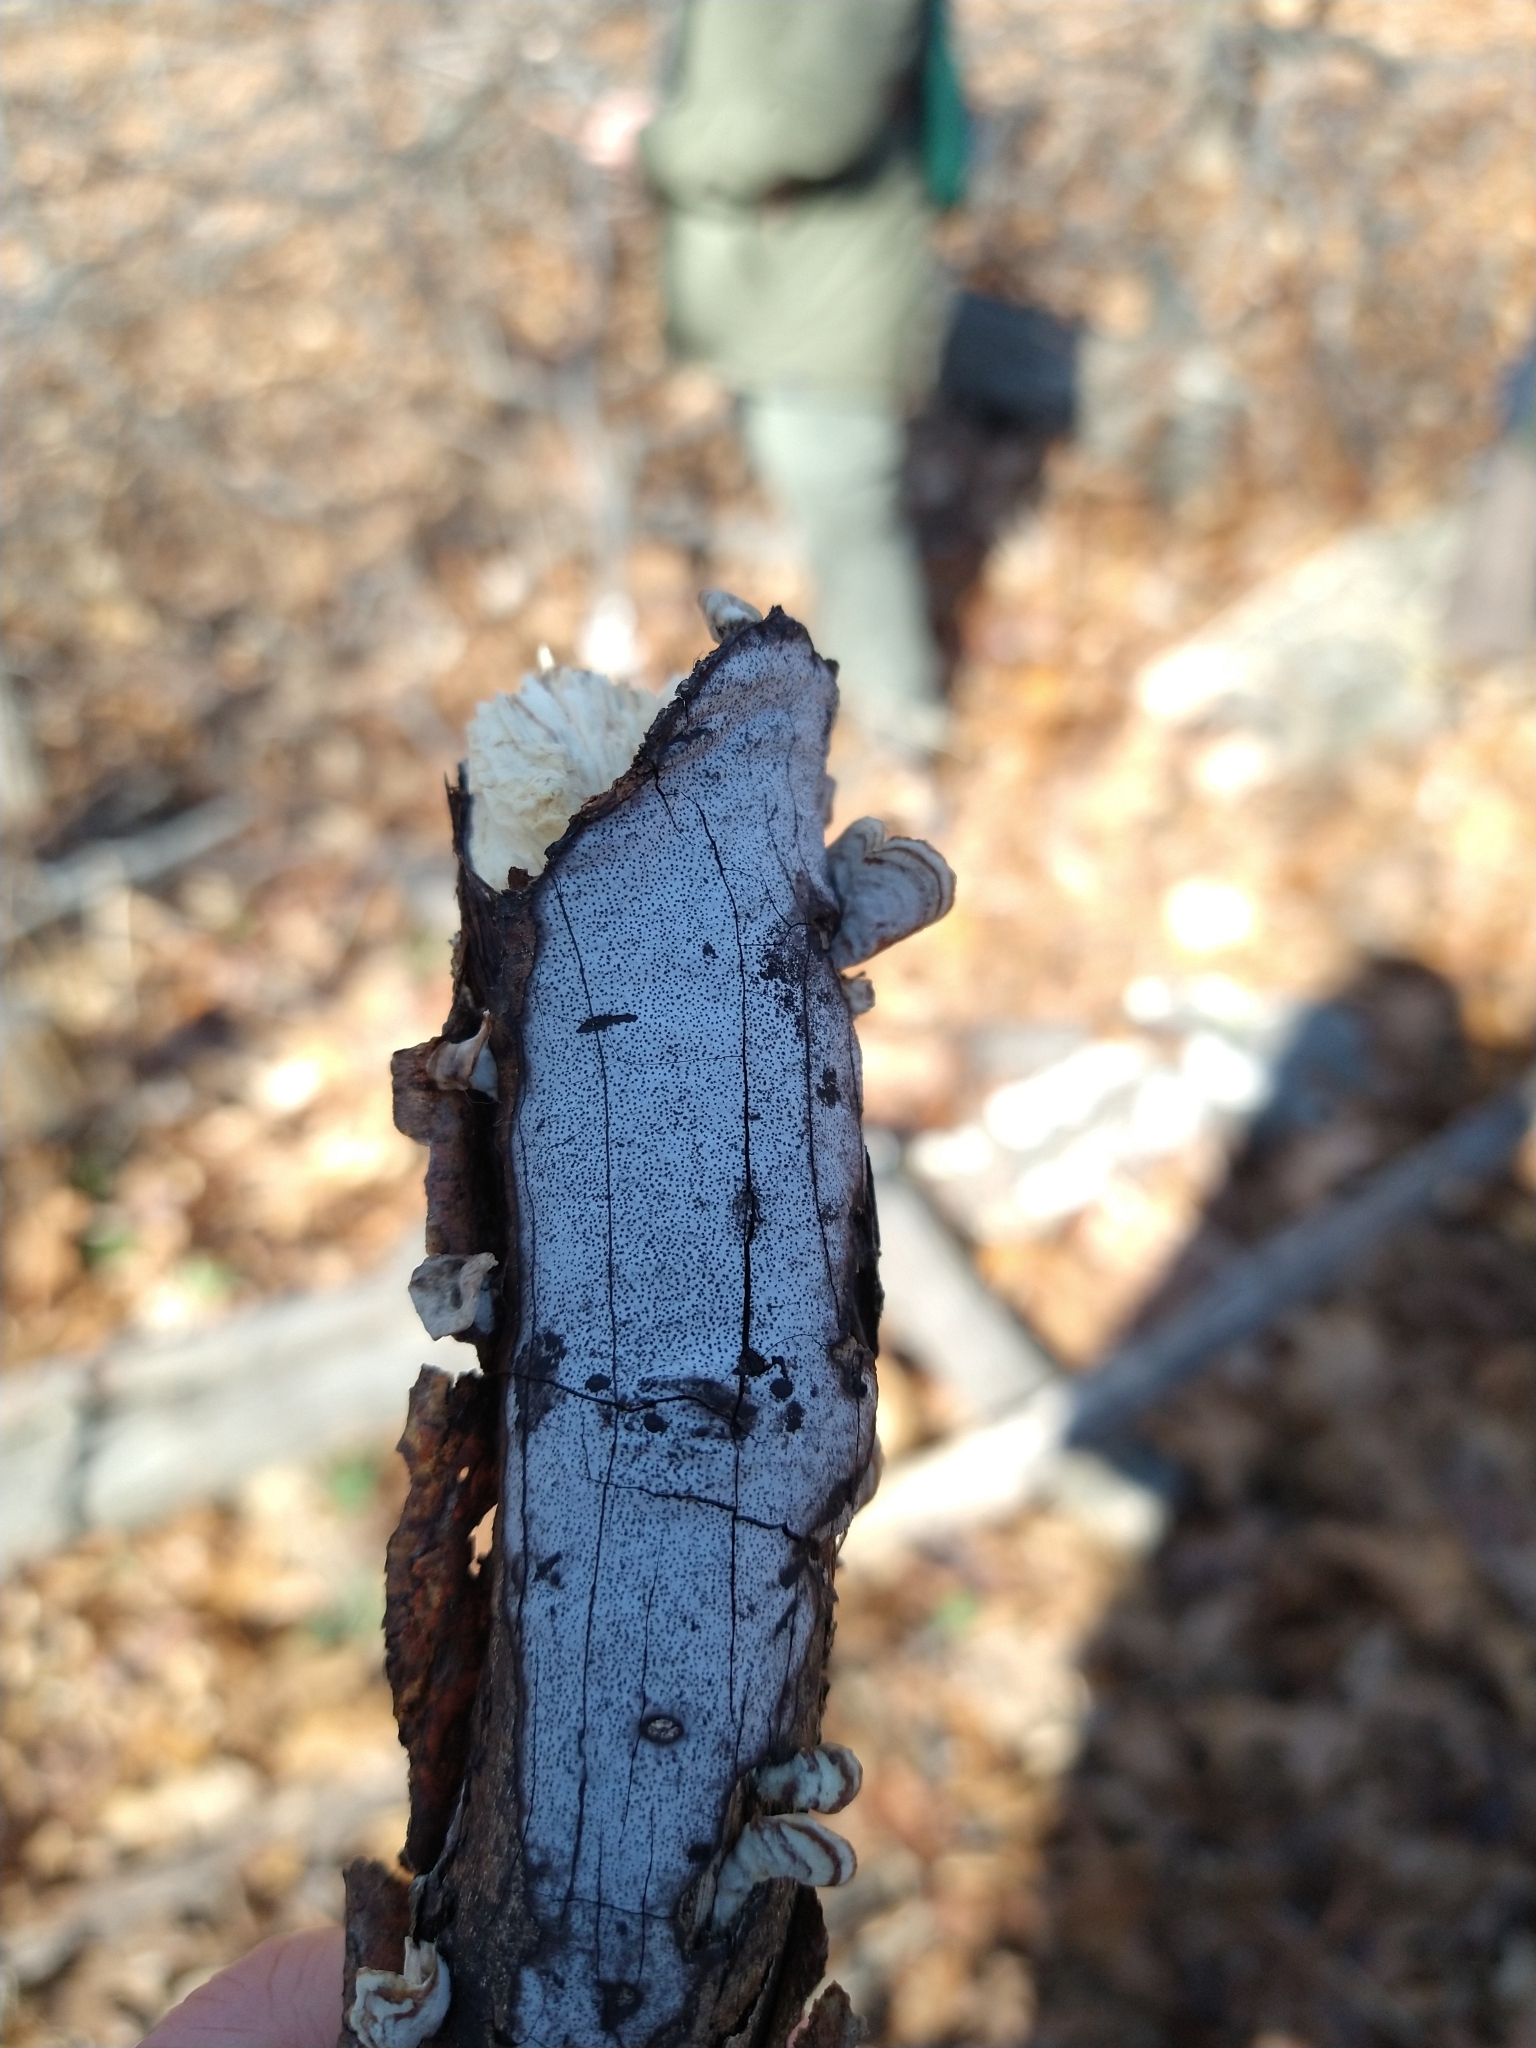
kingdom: Fungi
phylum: Ascomycota
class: Sordariomycetes
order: Xylariales
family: Graphostromataceae
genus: Biscogniauxia
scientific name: Biscogniauxia atropunctata
